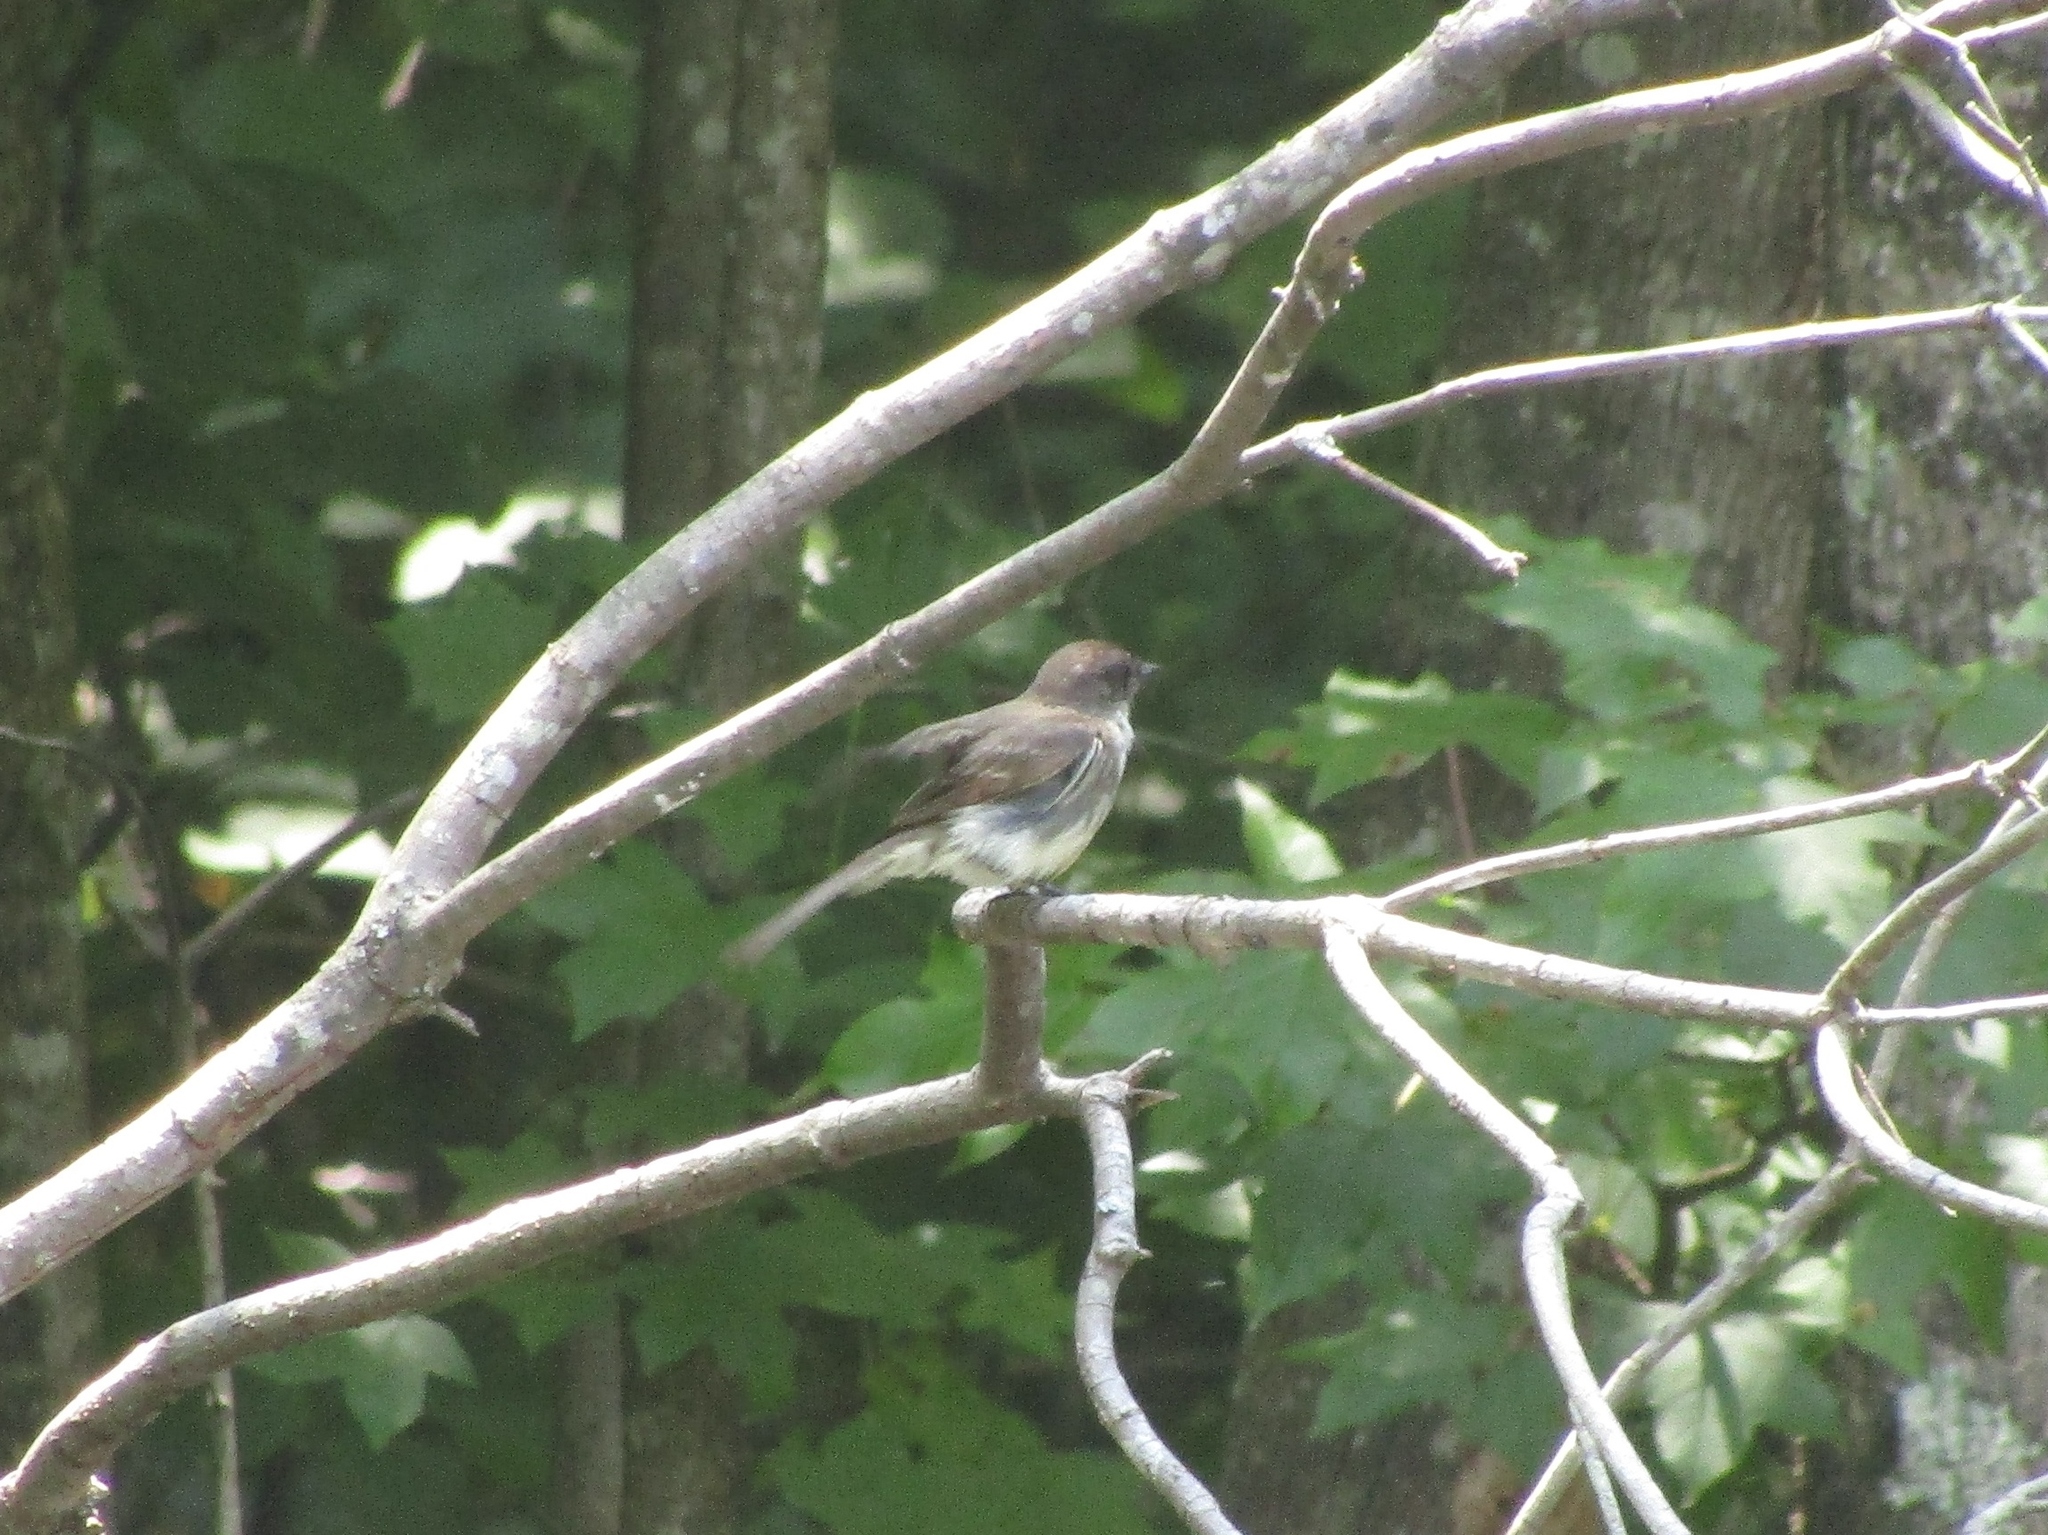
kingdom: Animalia
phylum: Chordata
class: Aves
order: Passeriformes
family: Tyrannidae
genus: Sayornis
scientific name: Sayornis phoebe
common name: Eastern phoebe
